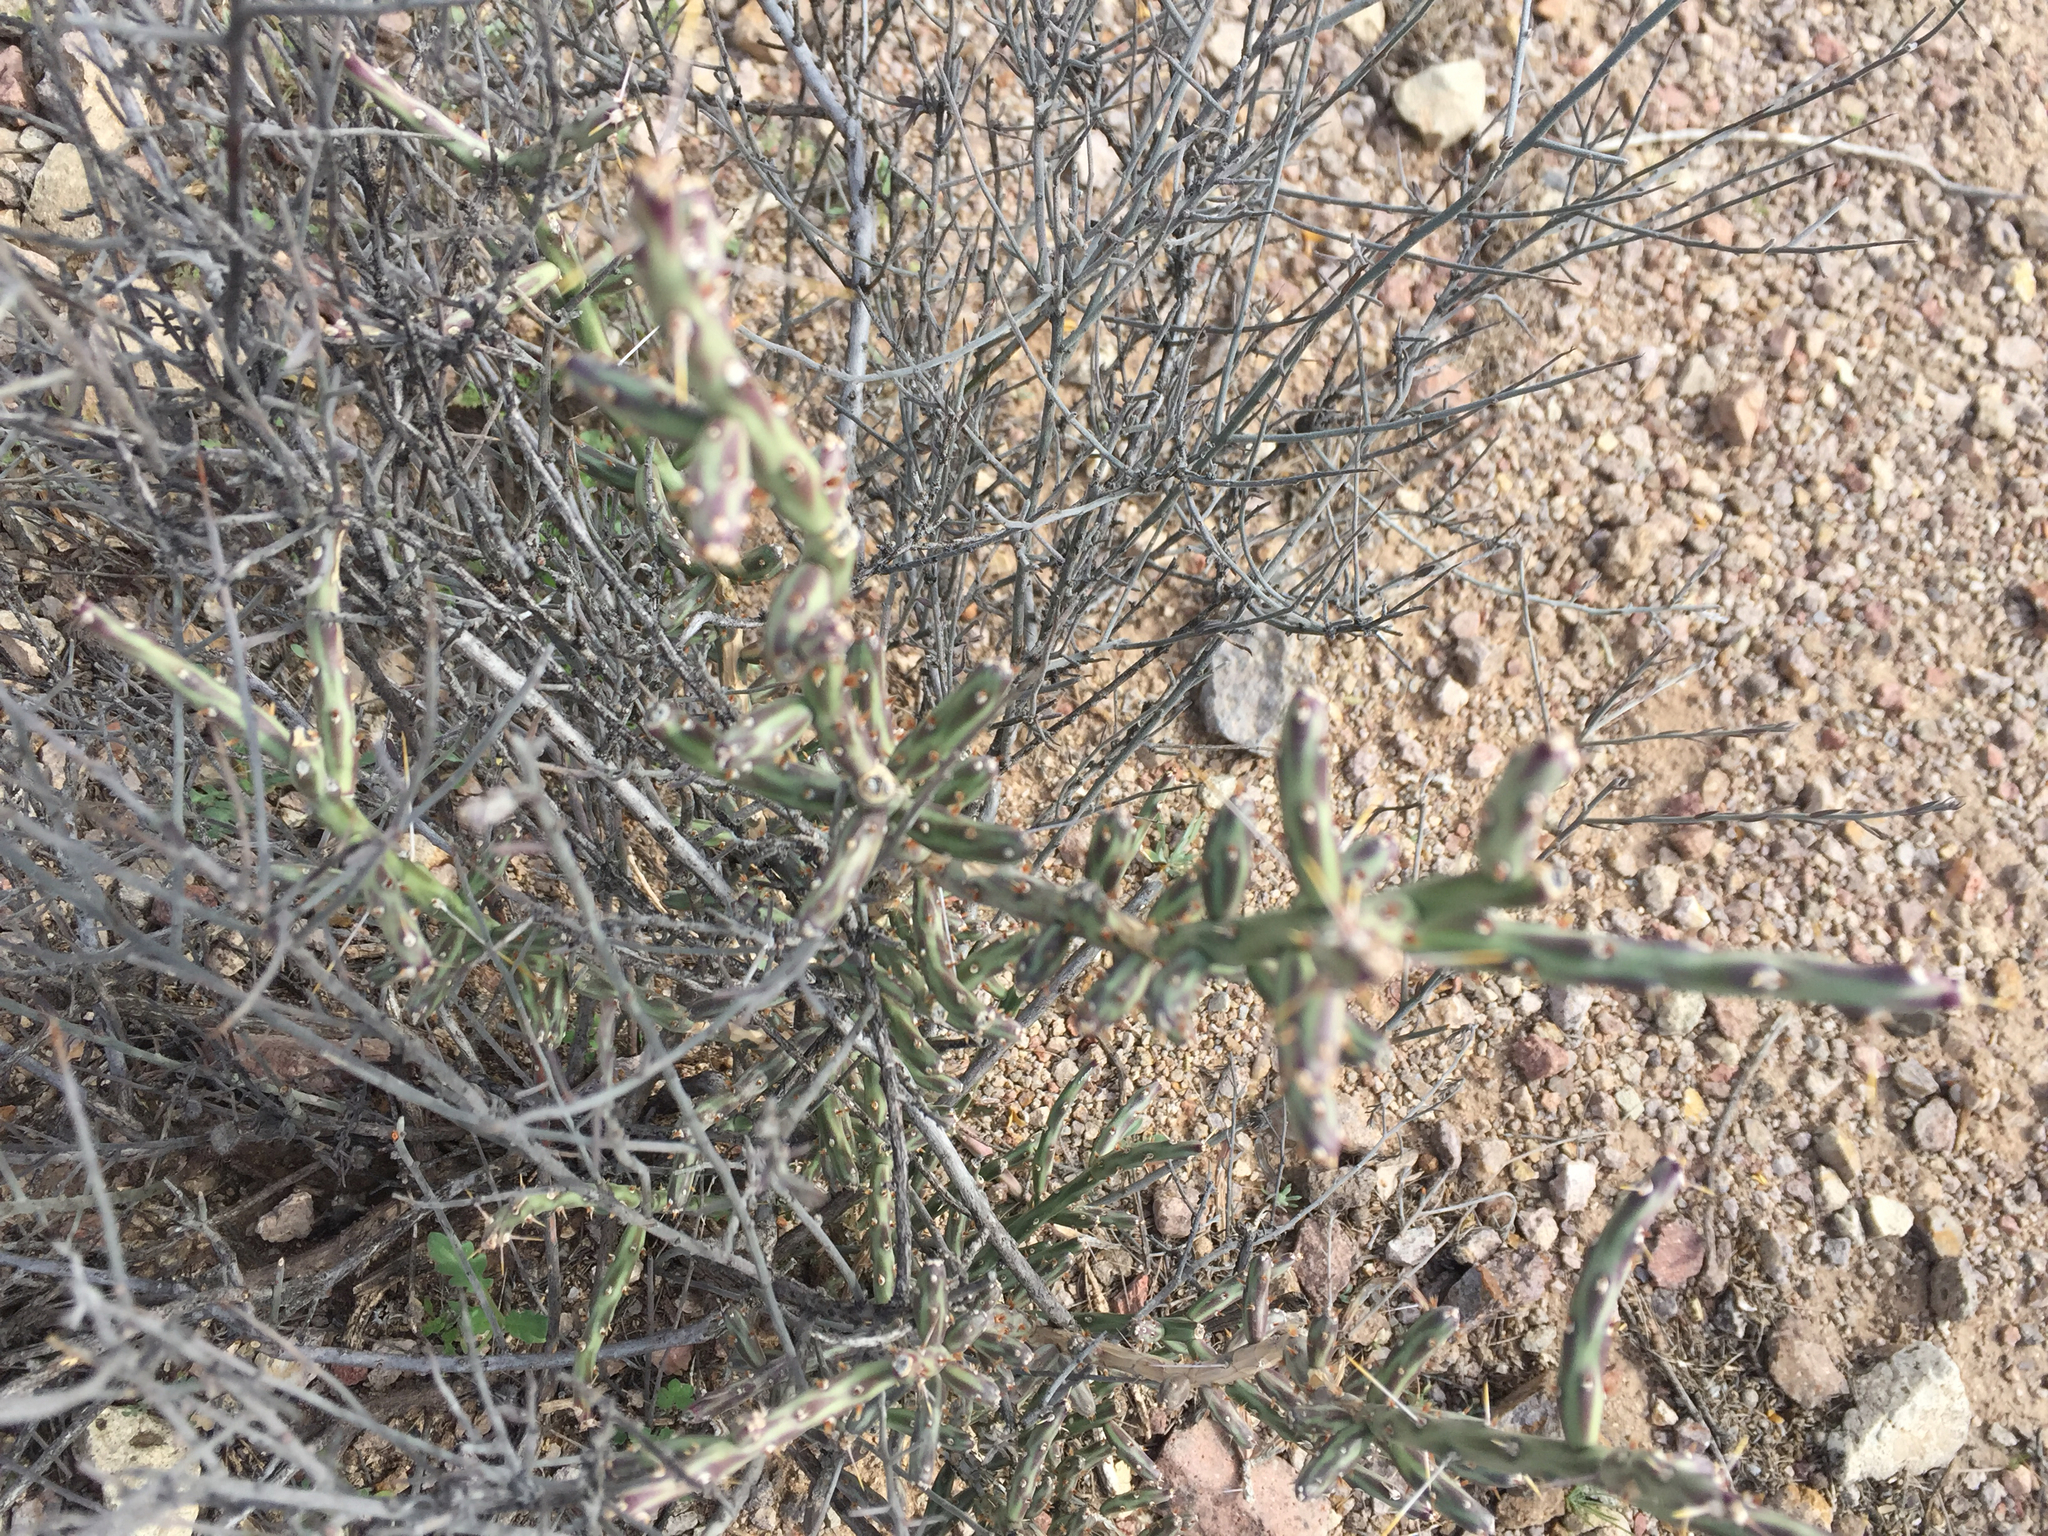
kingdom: Plantae
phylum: Tracheophyta
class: Magnoliopsida
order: Caryophyllales
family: Cactaceae
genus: Cylindropuntia
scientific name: Cylindropuntia leptocaulis
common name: Christmas cactus
